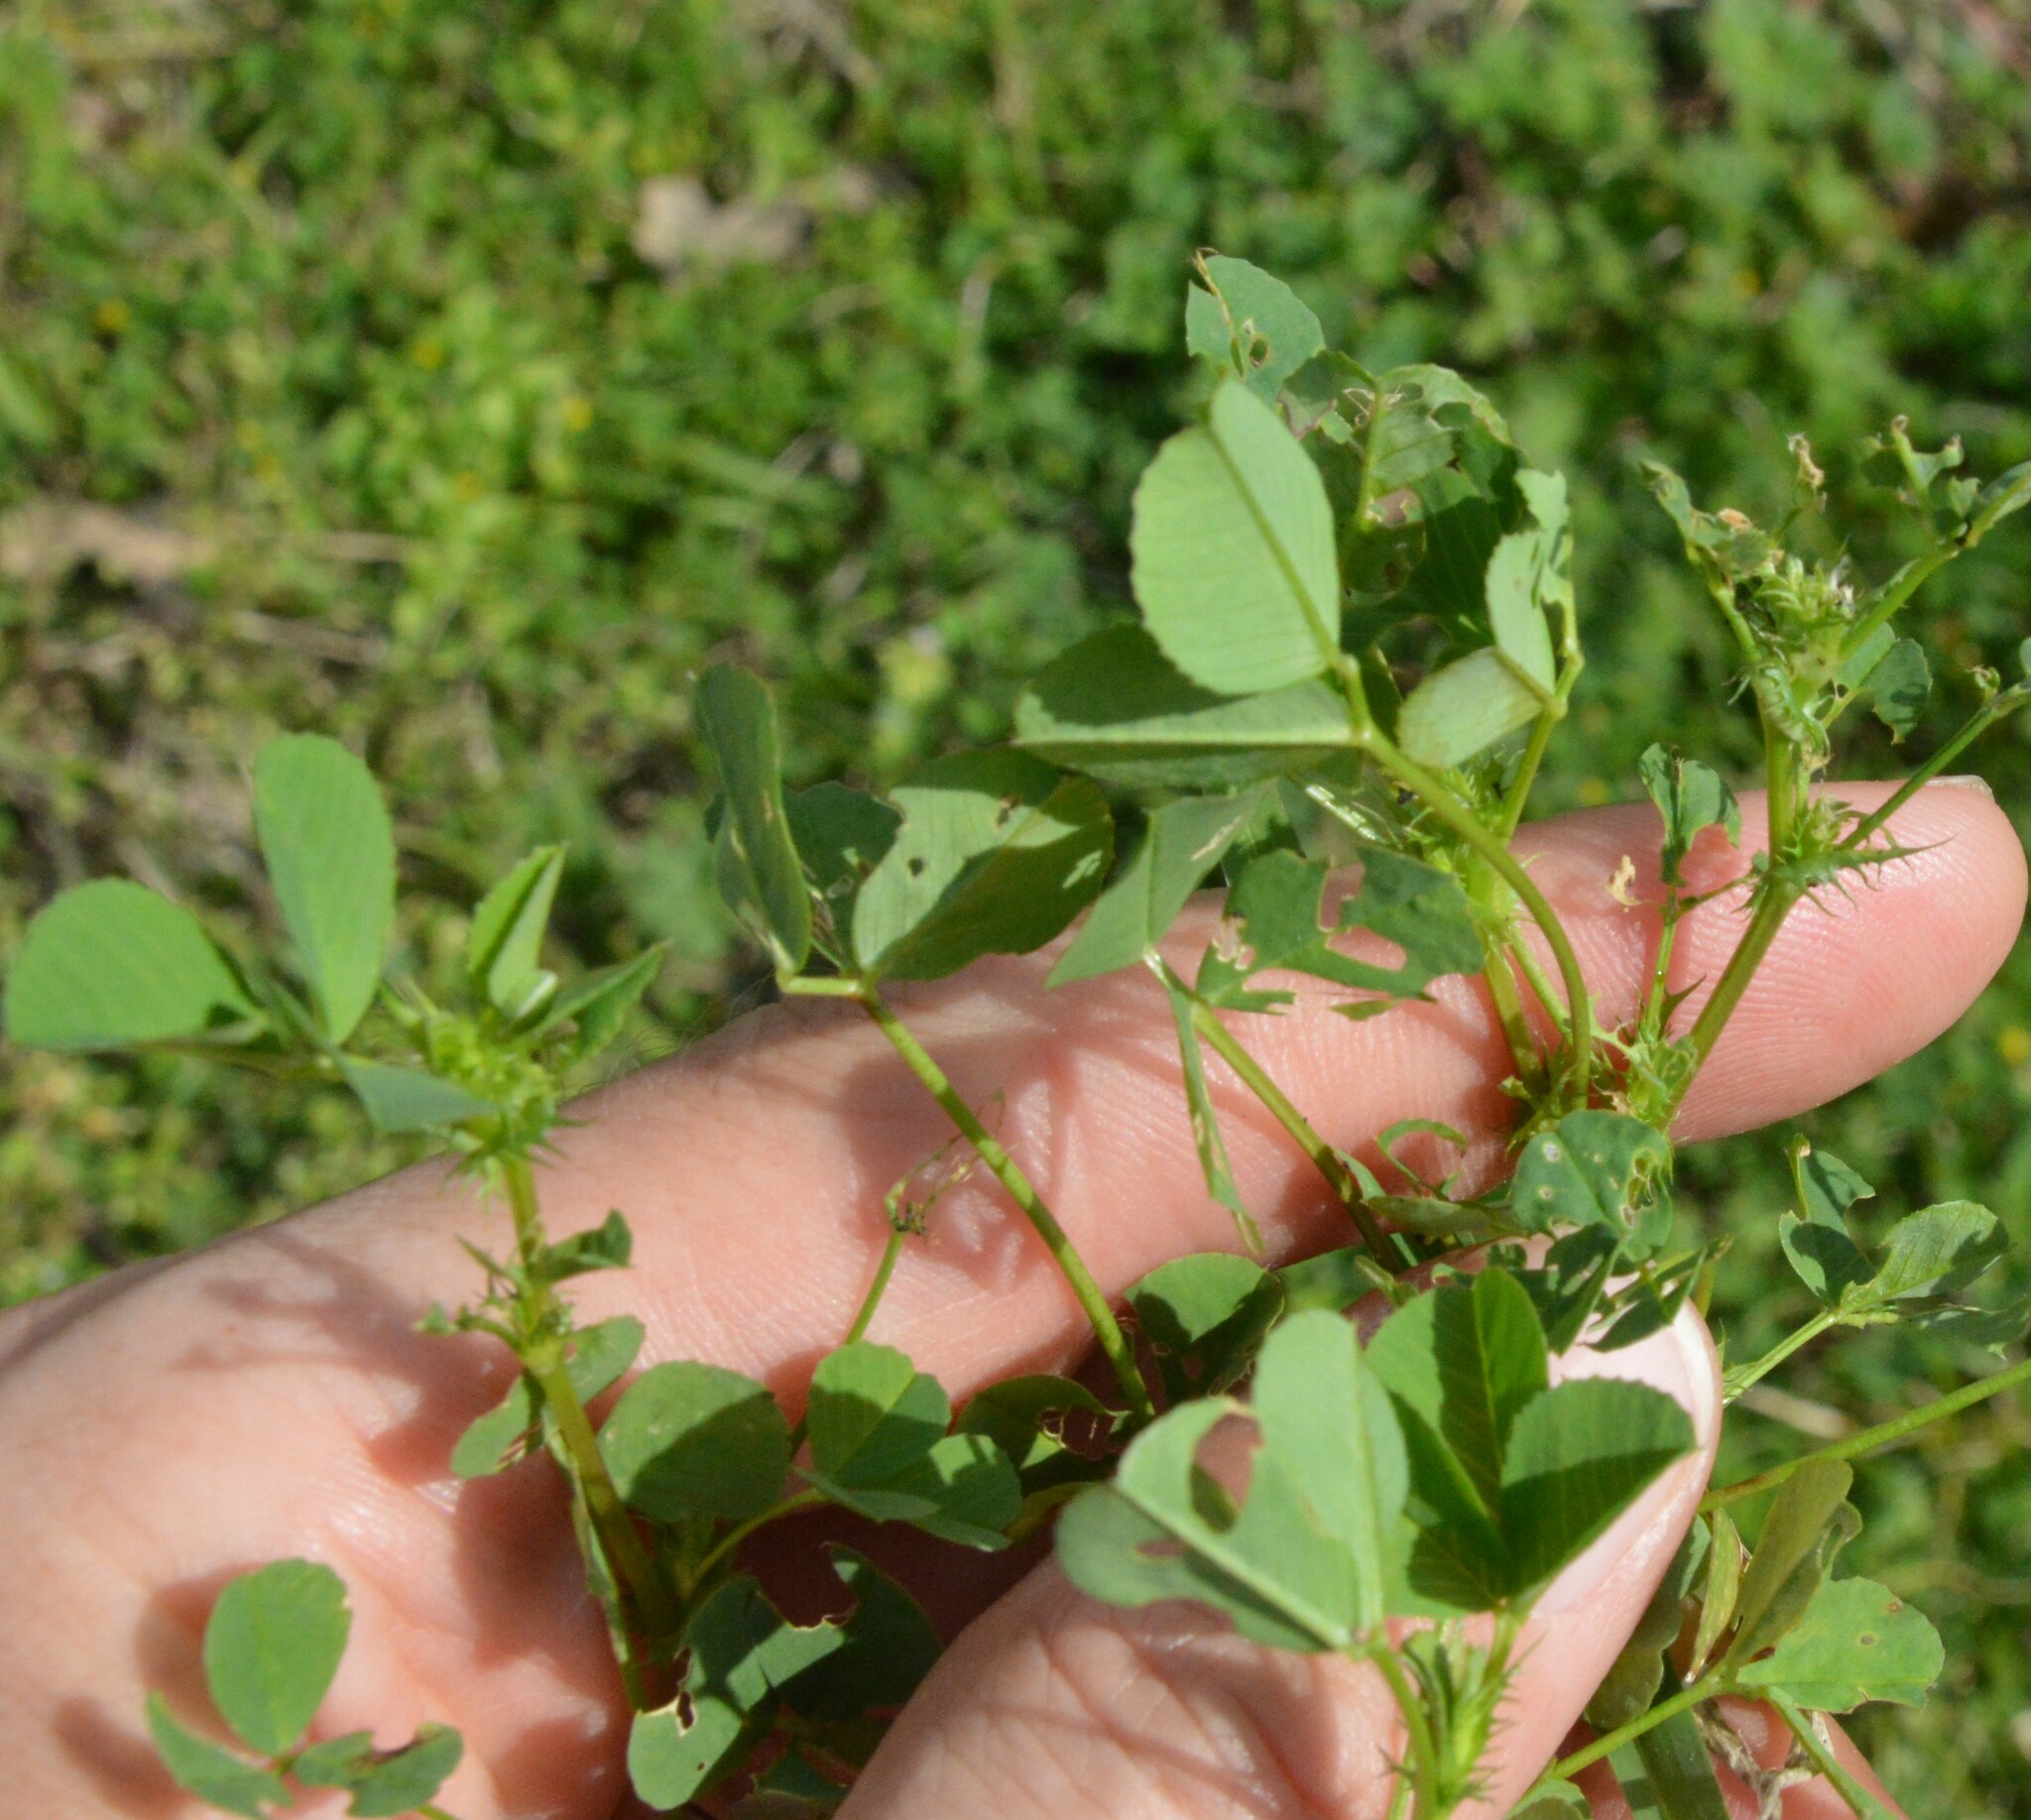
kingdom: Plantae
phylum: Tracheophyta
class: Magnoliopsida
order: Fabales
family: Fabaceae
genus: Medicago
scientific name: Medicago polymorpha
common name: Burclover
